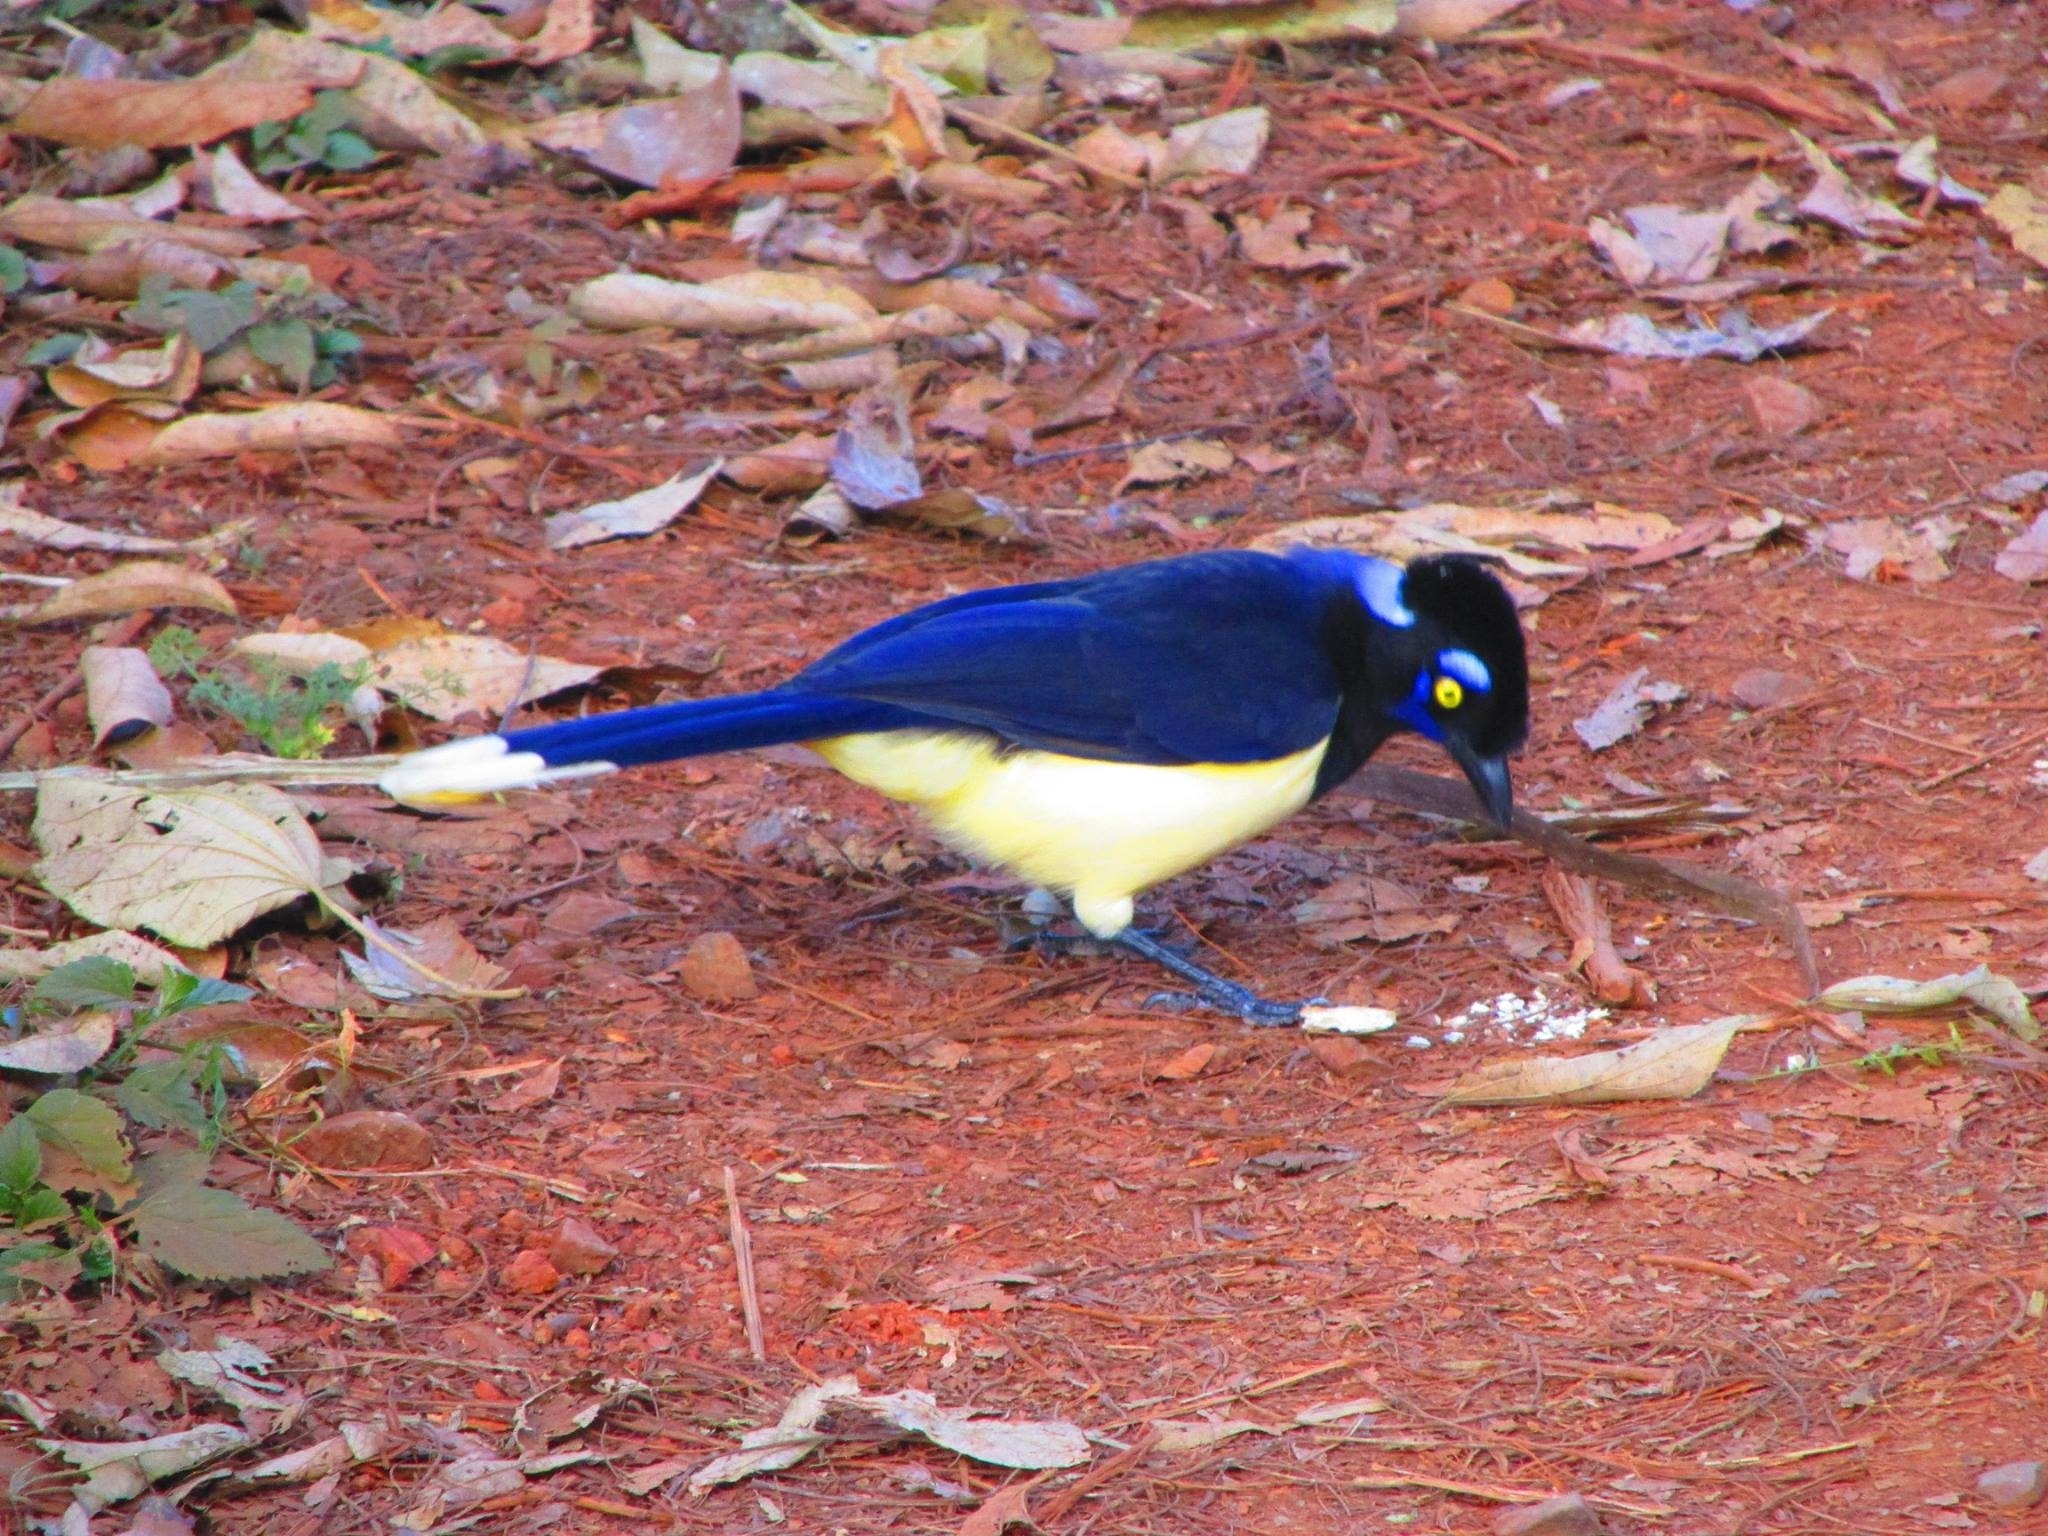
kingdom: Animalia
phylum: Chordata
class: Aves
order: Passeriformes
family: Corvidae
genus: Cyanocorax
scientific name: Cyanocorax chrysops
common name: Plush-crested jay
